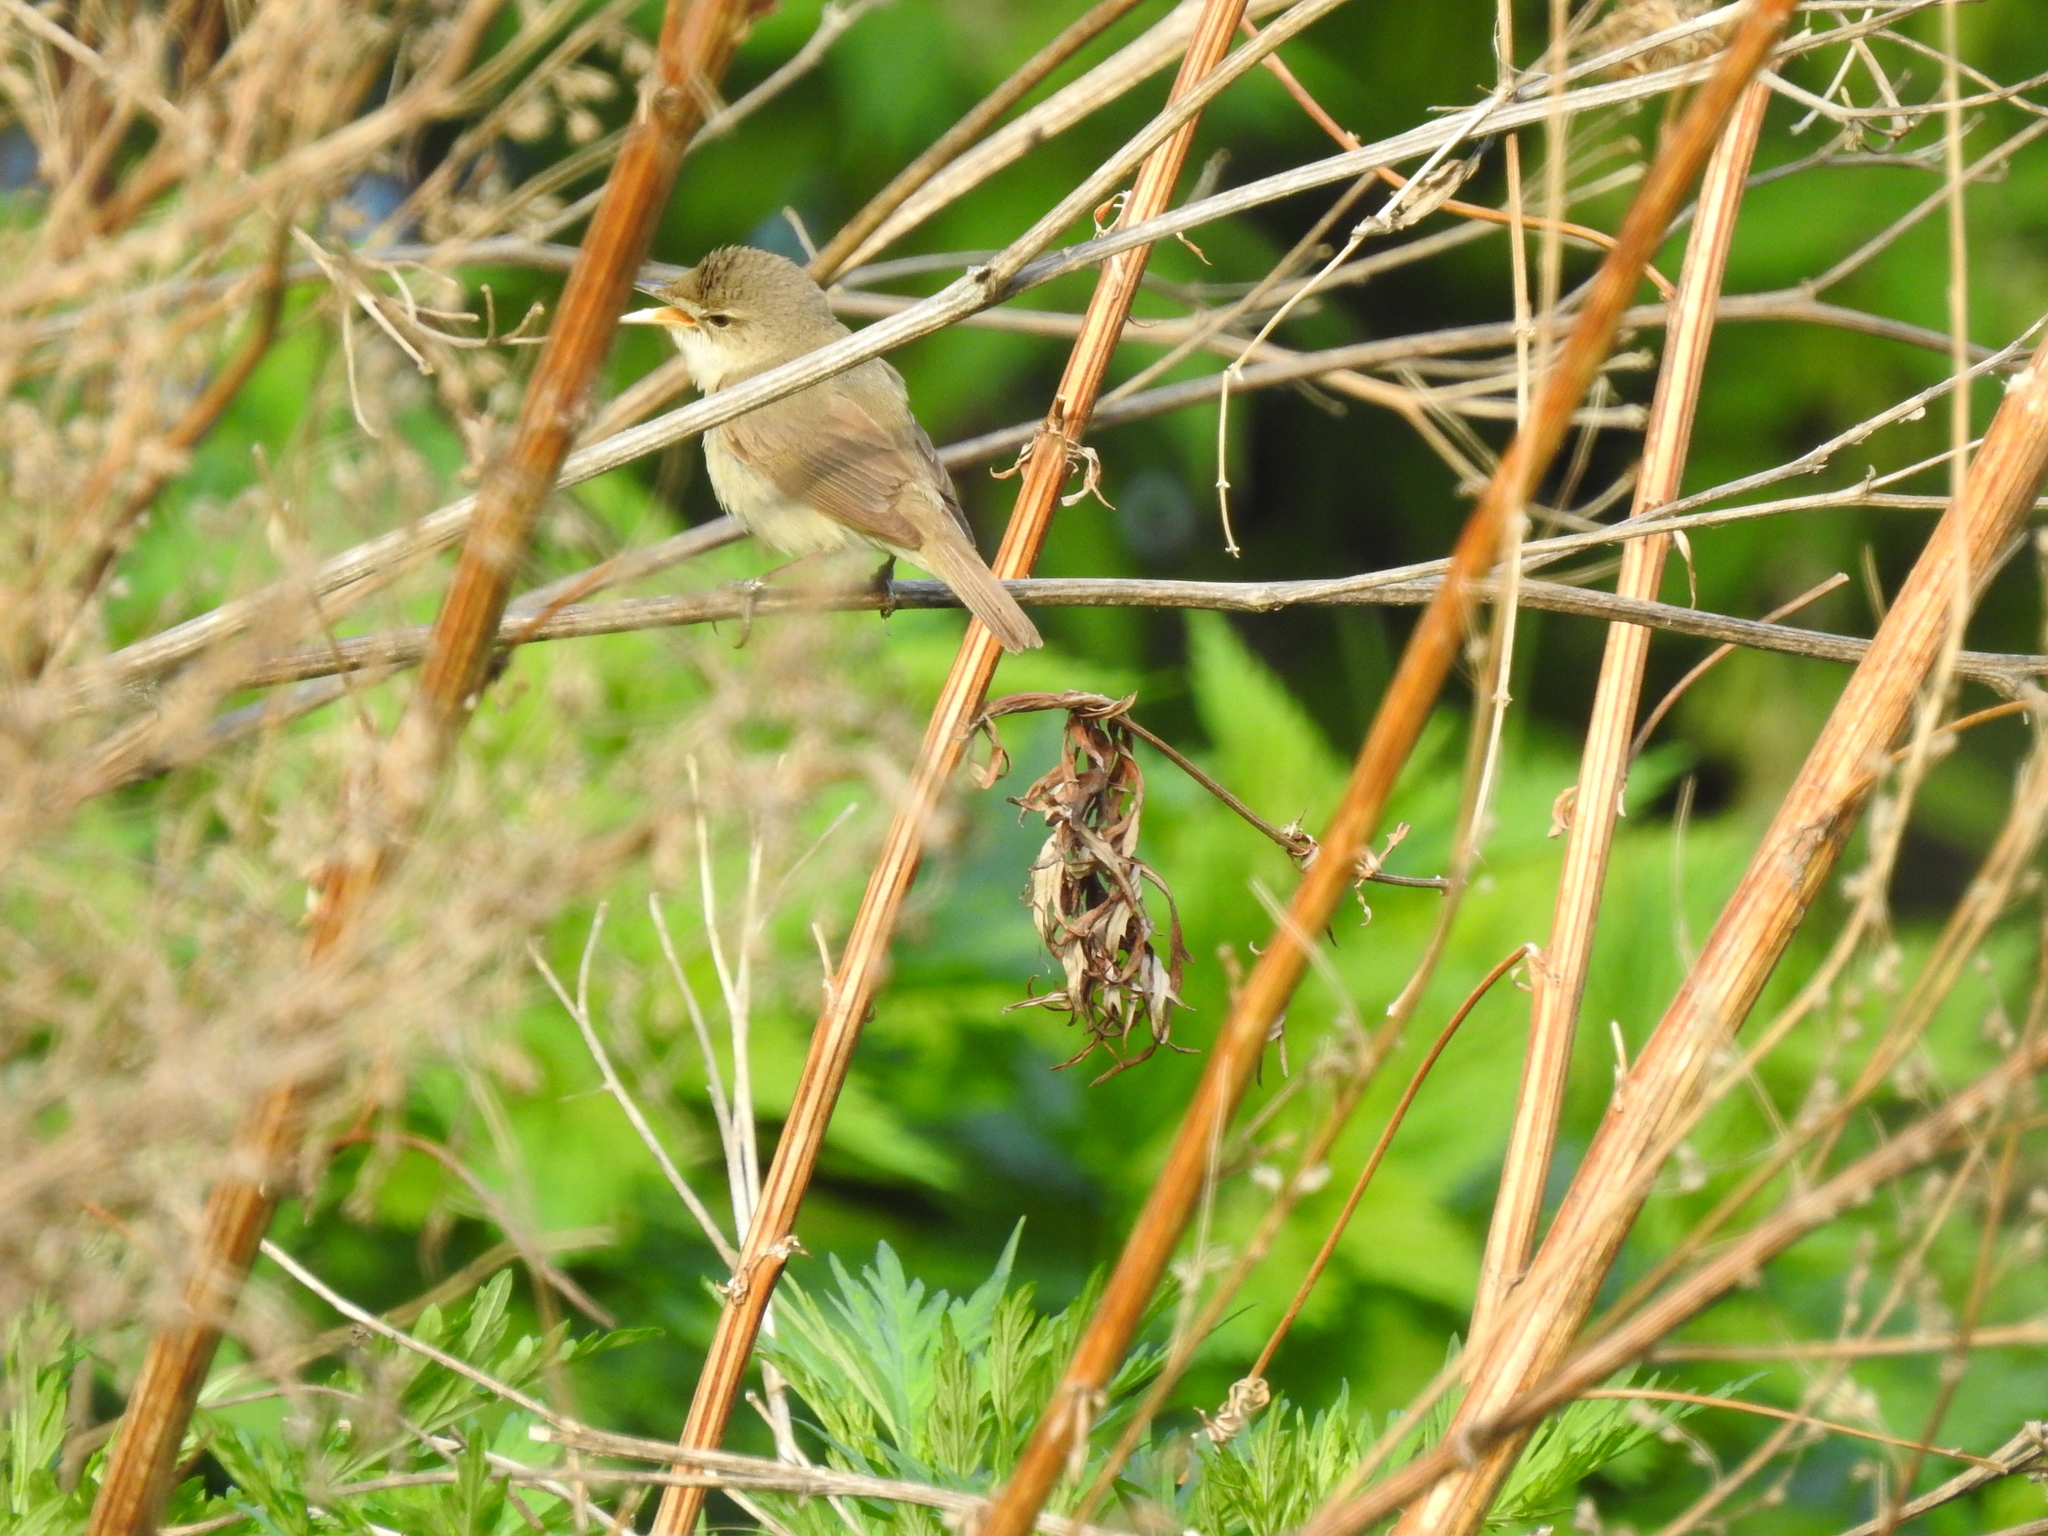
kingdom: Animalia
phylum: Chordata
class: Aves
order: Passeriformes
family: Acrocephalidae
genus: Acrocephalus
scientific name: Acrocephalus dumetorum
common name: Blyth's reed warbler
